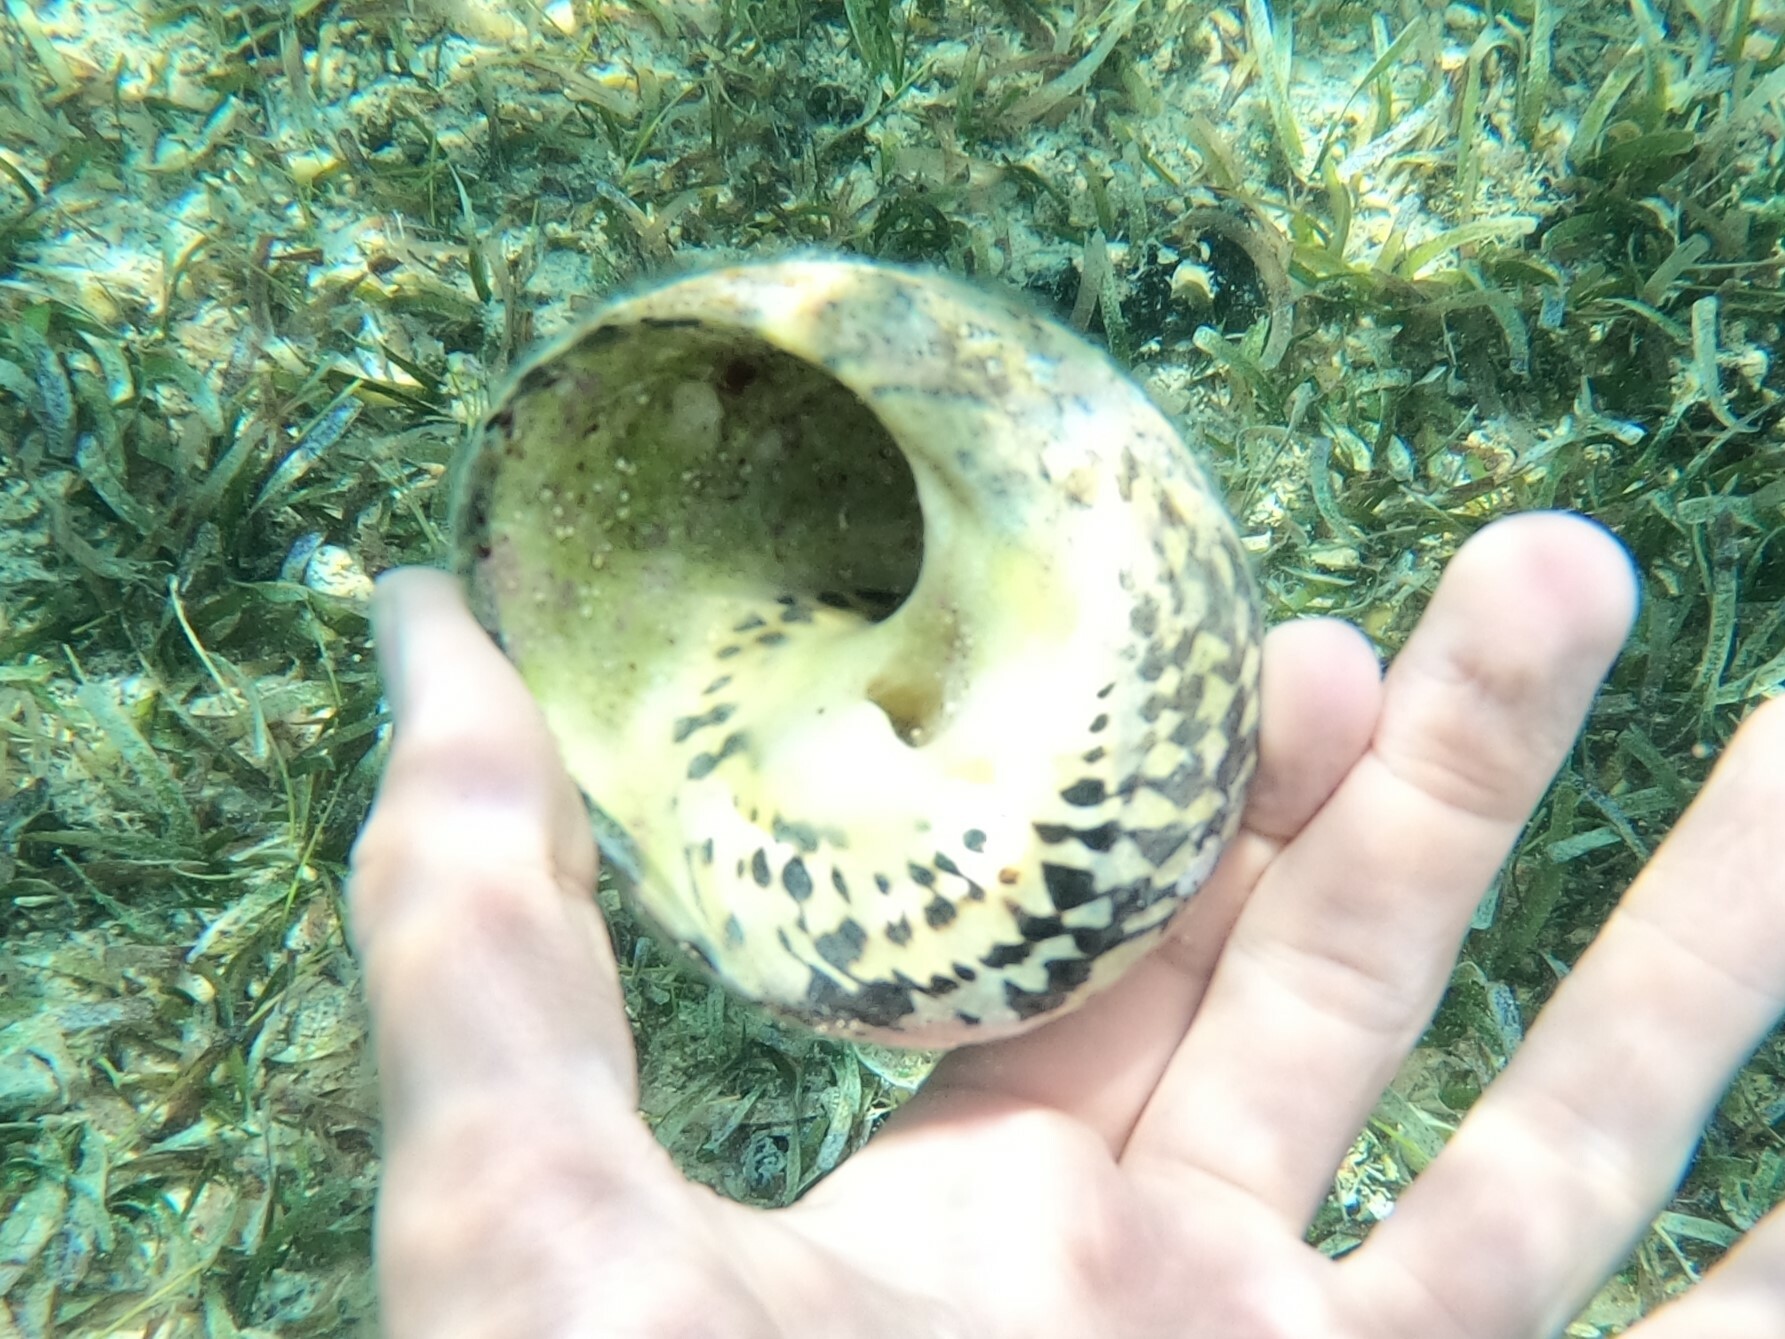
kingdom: Animalia
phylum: Mollusca
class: Gastropoda
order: Trochida
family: Tegulidae
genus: Cittarium
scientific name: Cittarium pica
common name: West indian topshell
